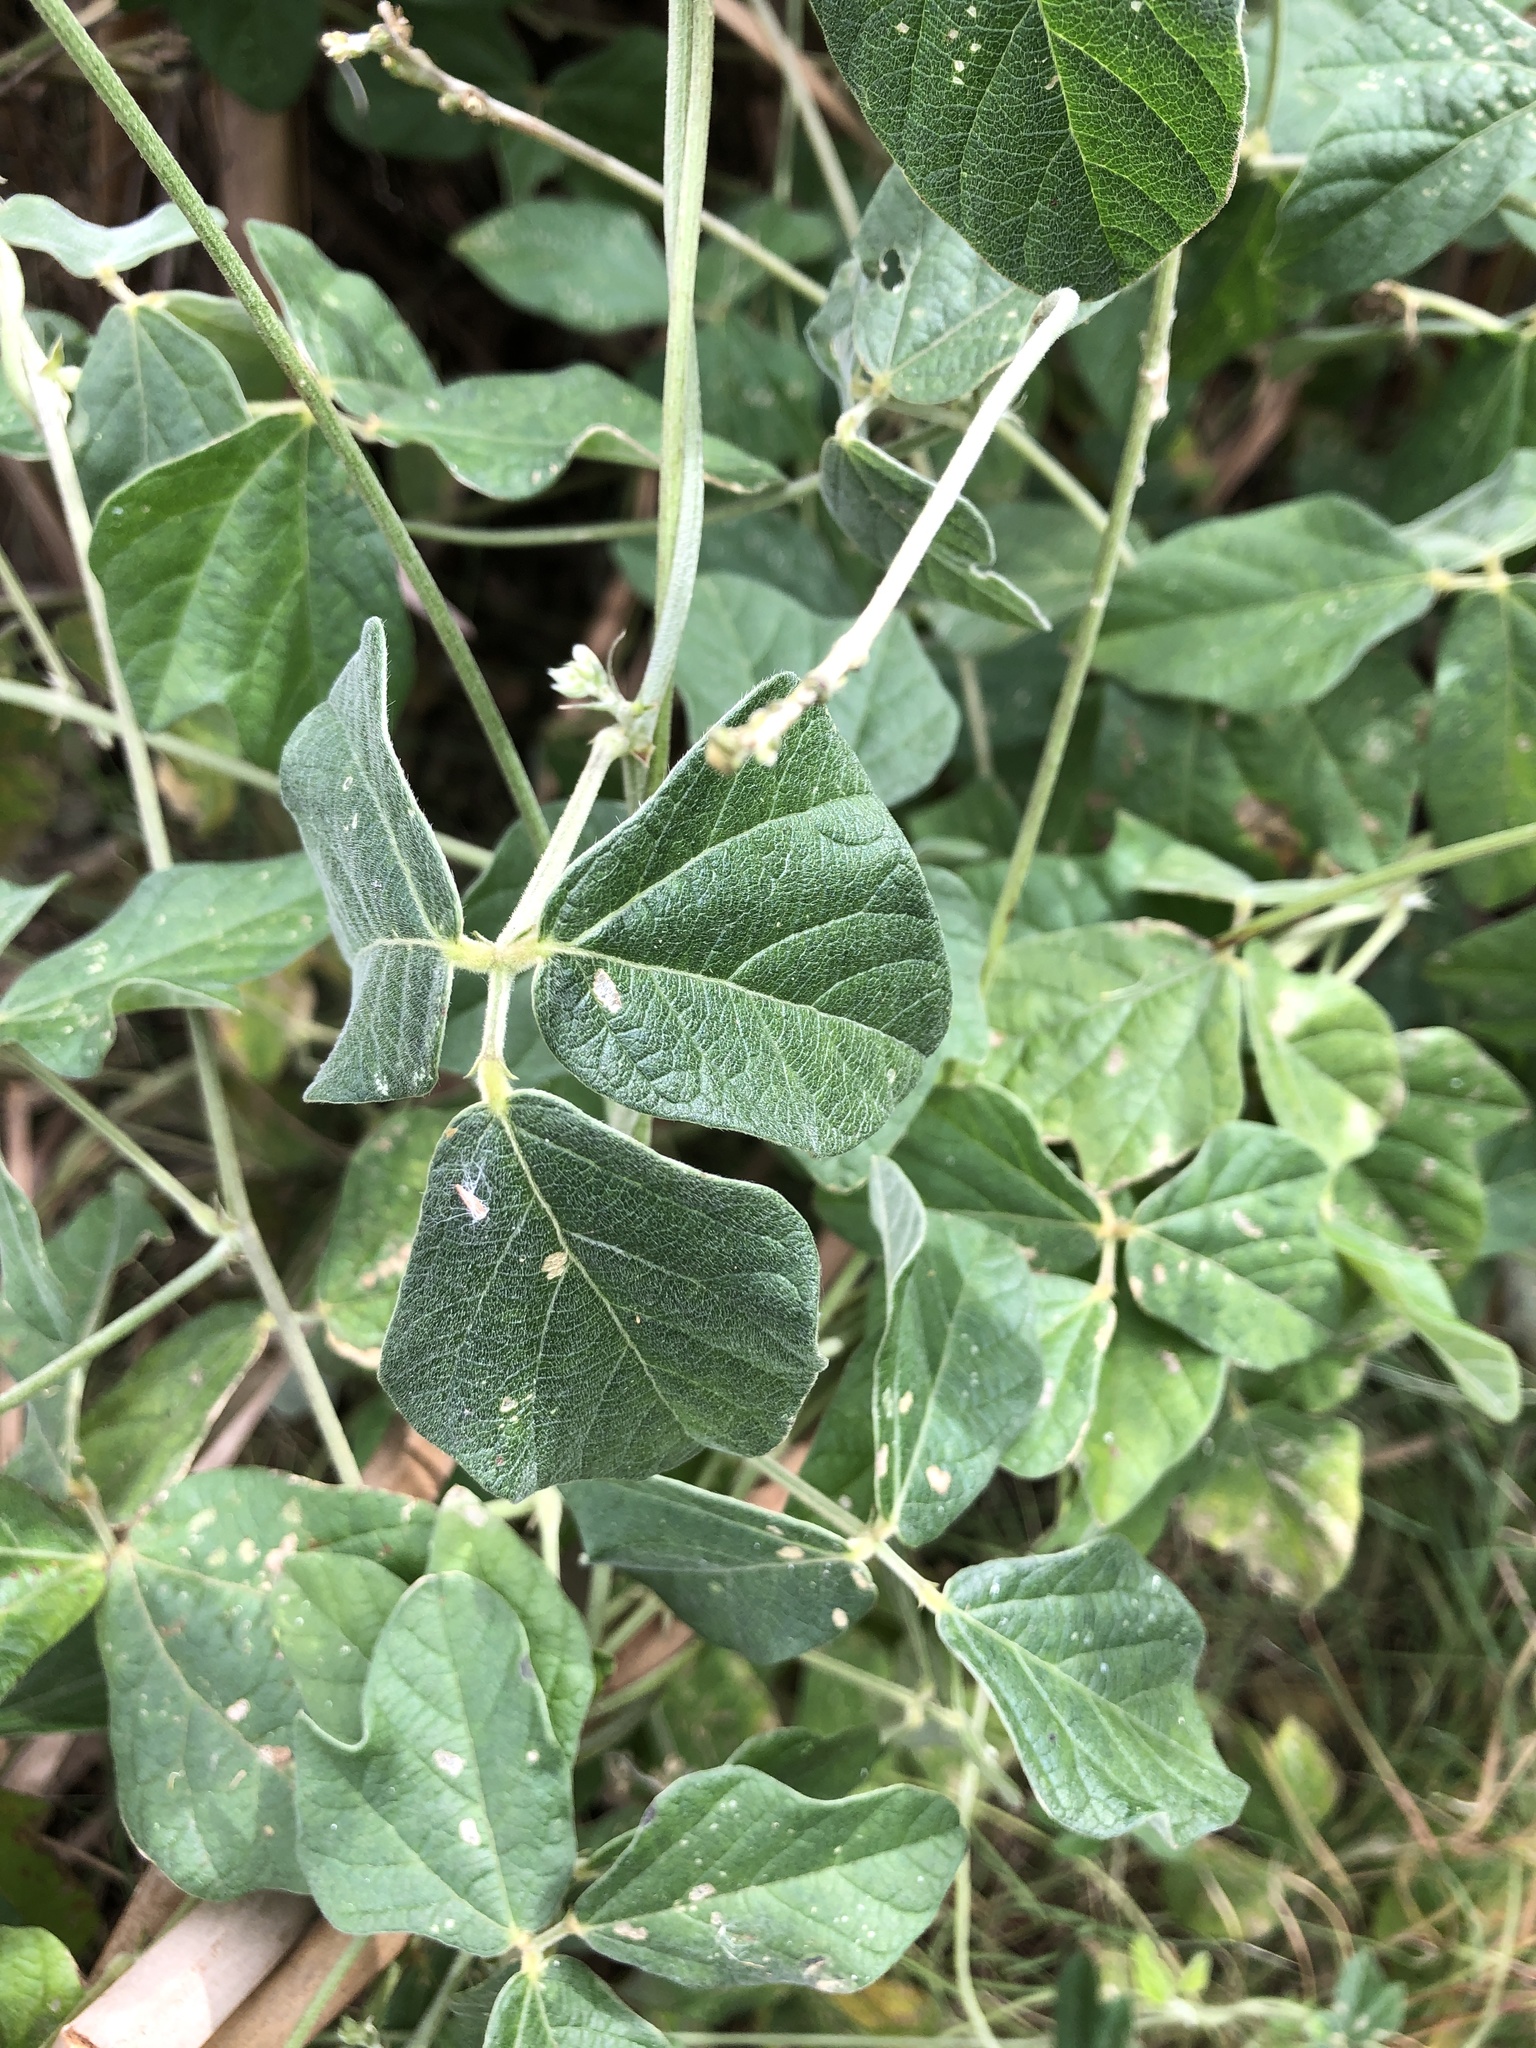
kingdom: Plantae
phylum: Tracheophyta
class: Magnoliopsida
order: Fabales
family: Fabaceae
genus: Macroptilium
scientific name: Macroptilium atropurpureum
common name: Purple bushbean
